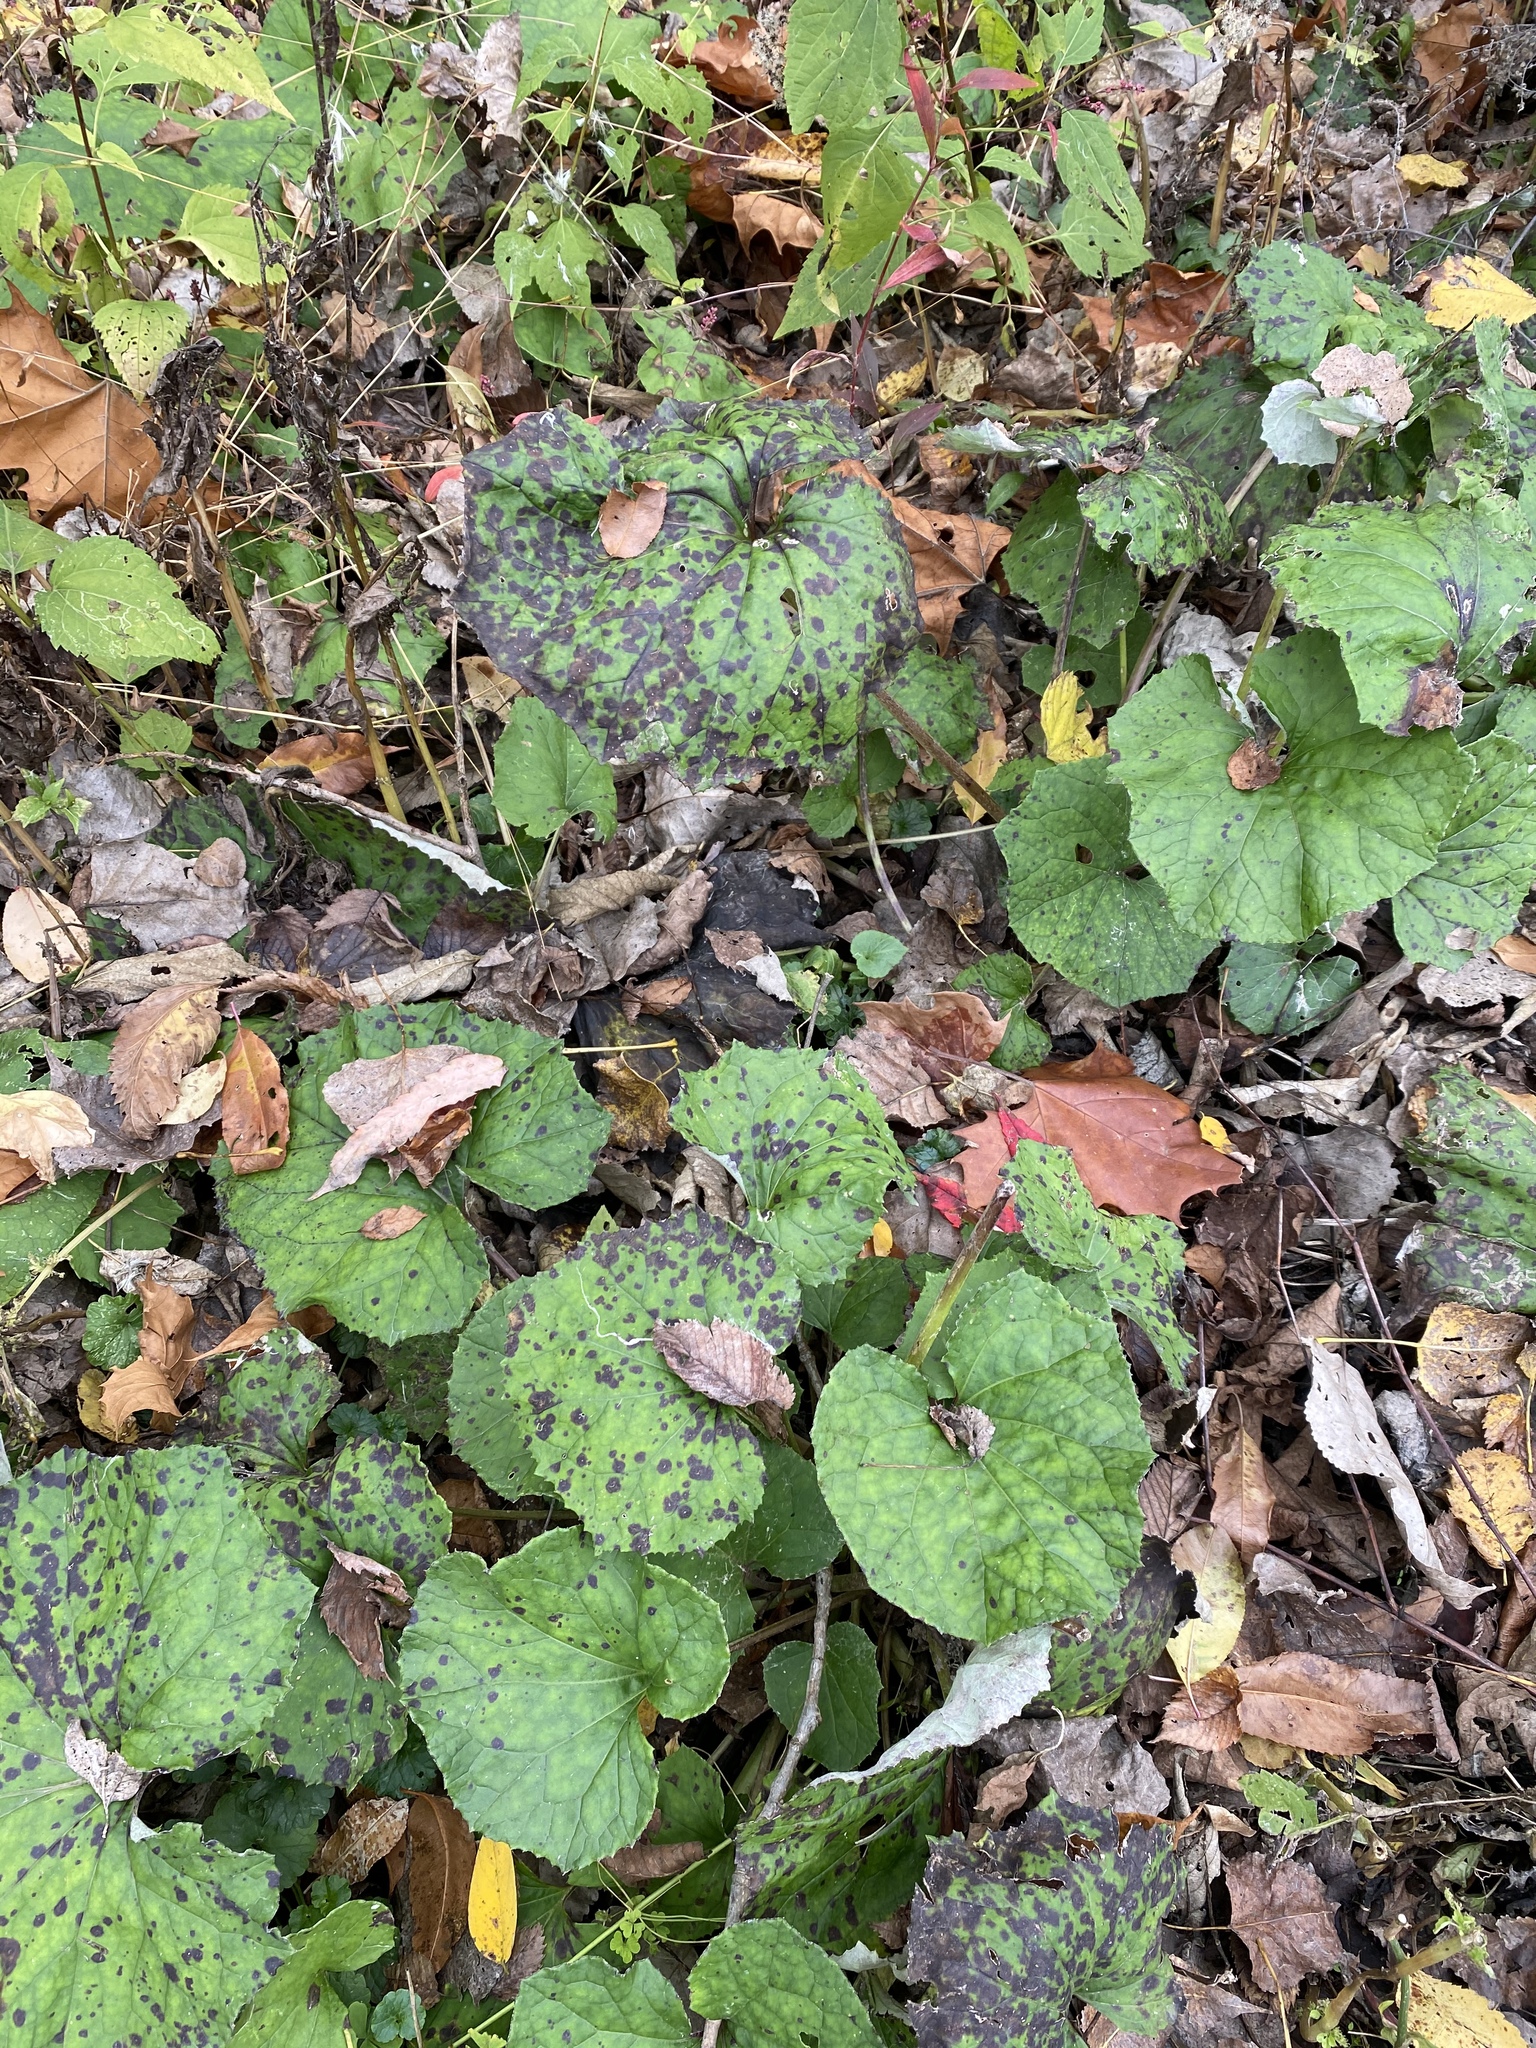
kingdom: Plantae
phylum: Tracheophyta
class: Magnoliopsida
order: Asterales
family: Asteraceae
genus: Tussilago
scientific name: Tussilago farfara
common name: Coltsfoot
